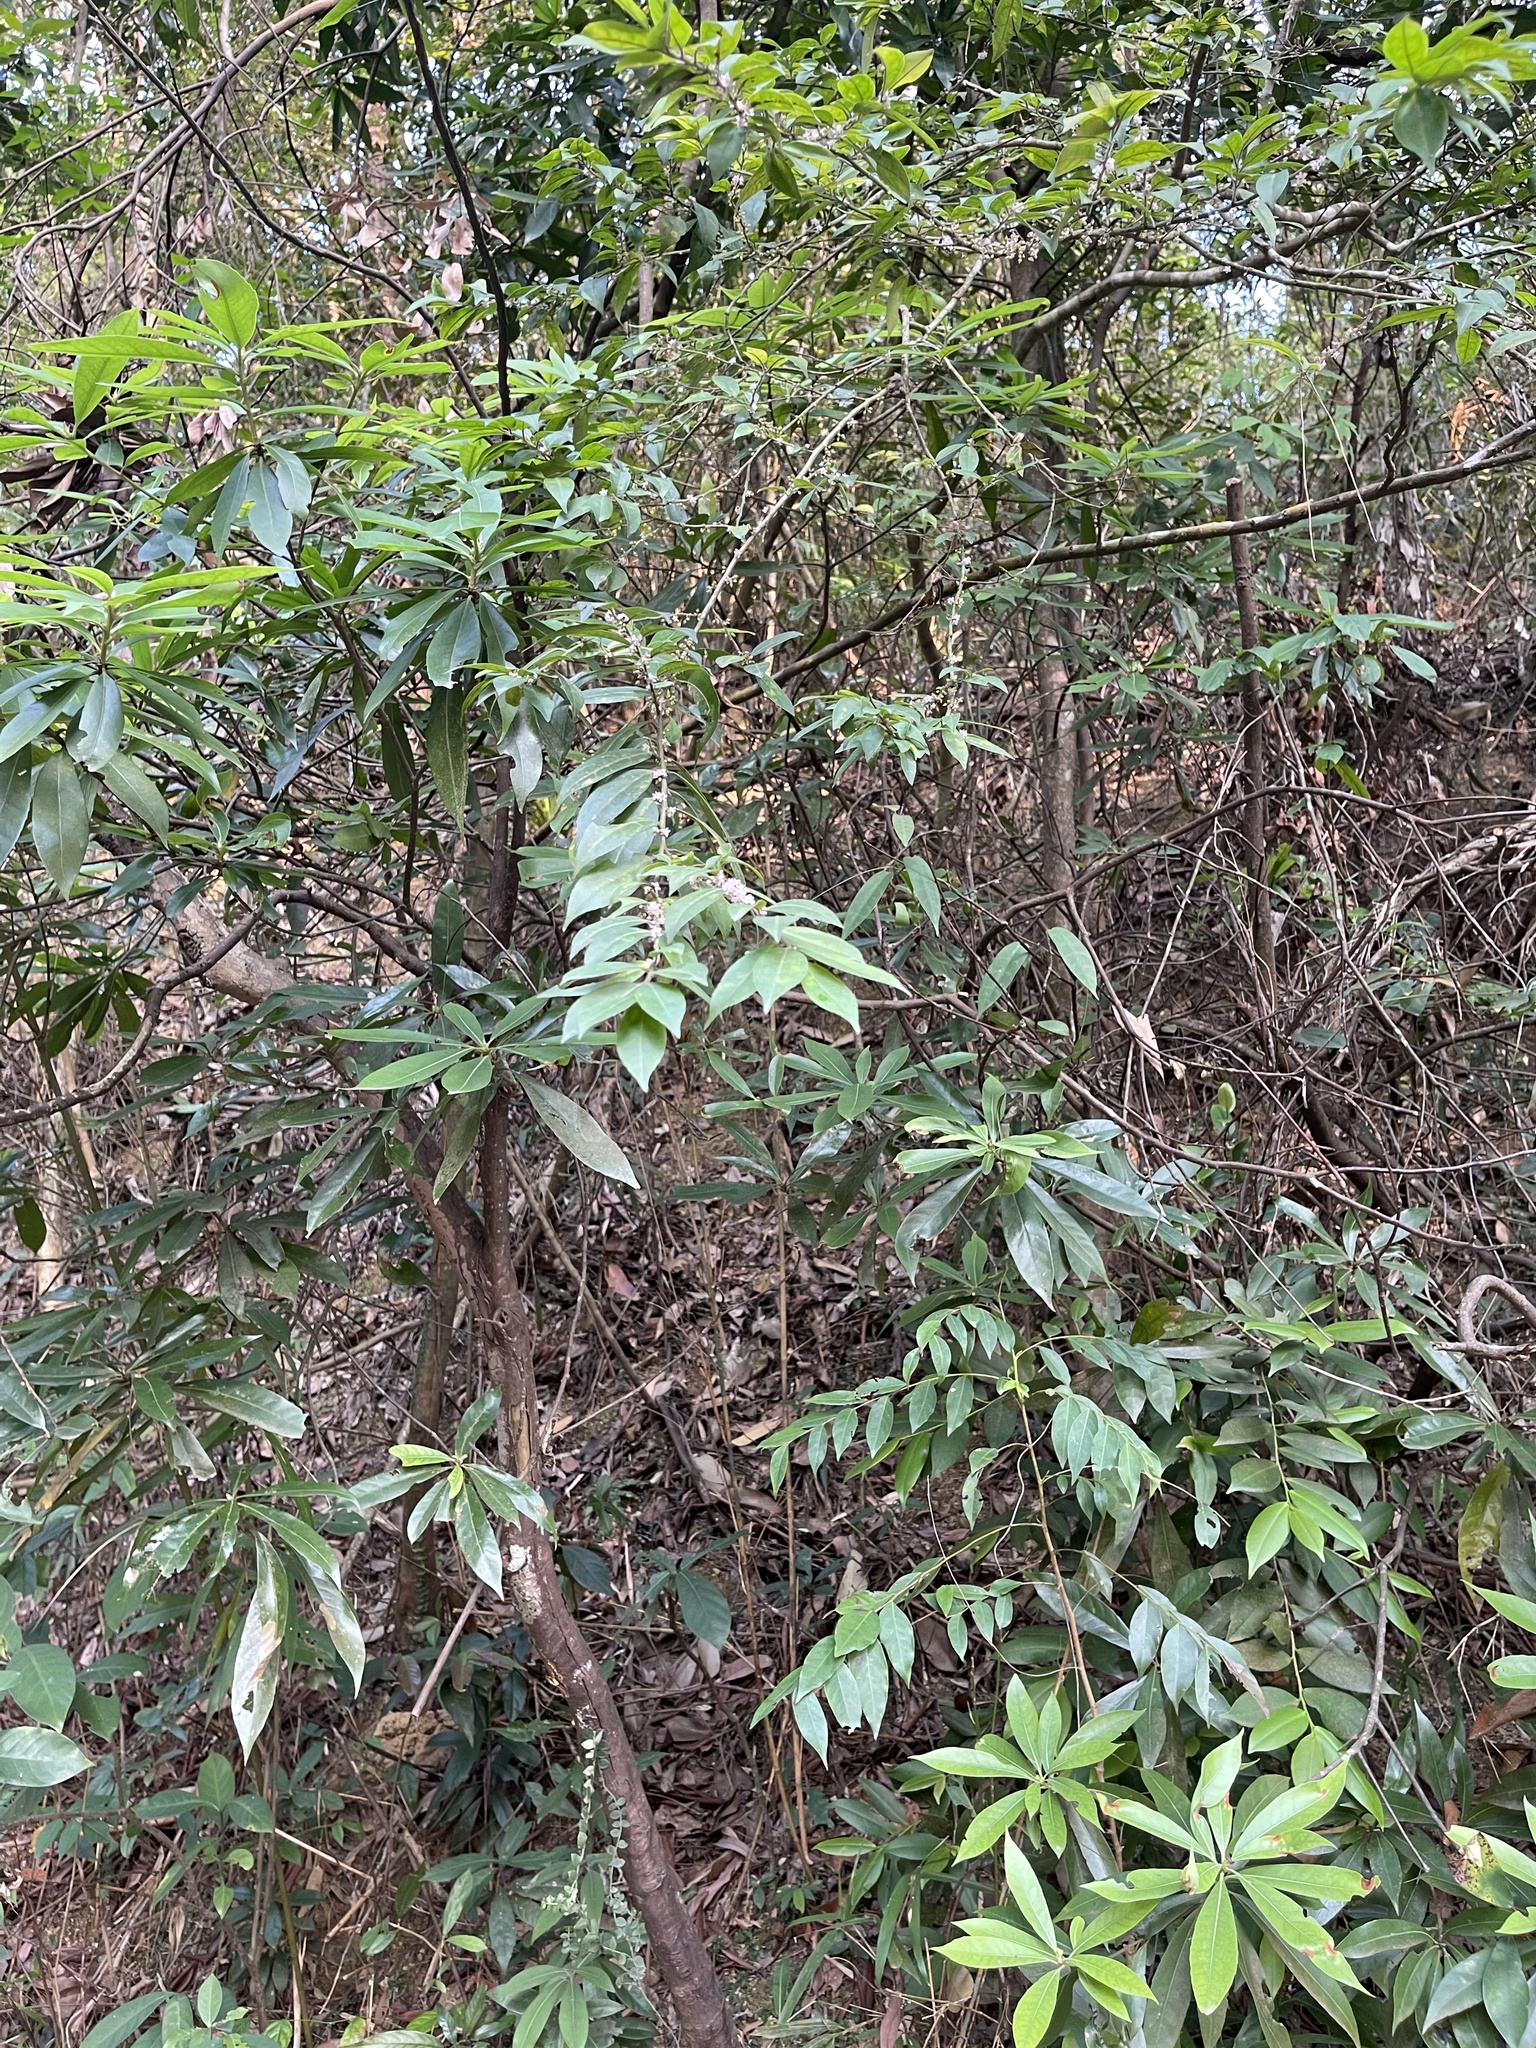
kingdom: Plantae
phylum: Tracheophyta
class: Magnoliopsida
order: Aquifoliales
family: Aquifoliaceae
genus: Ilex
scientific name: Ilex pubescens
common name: Pubescent holly
